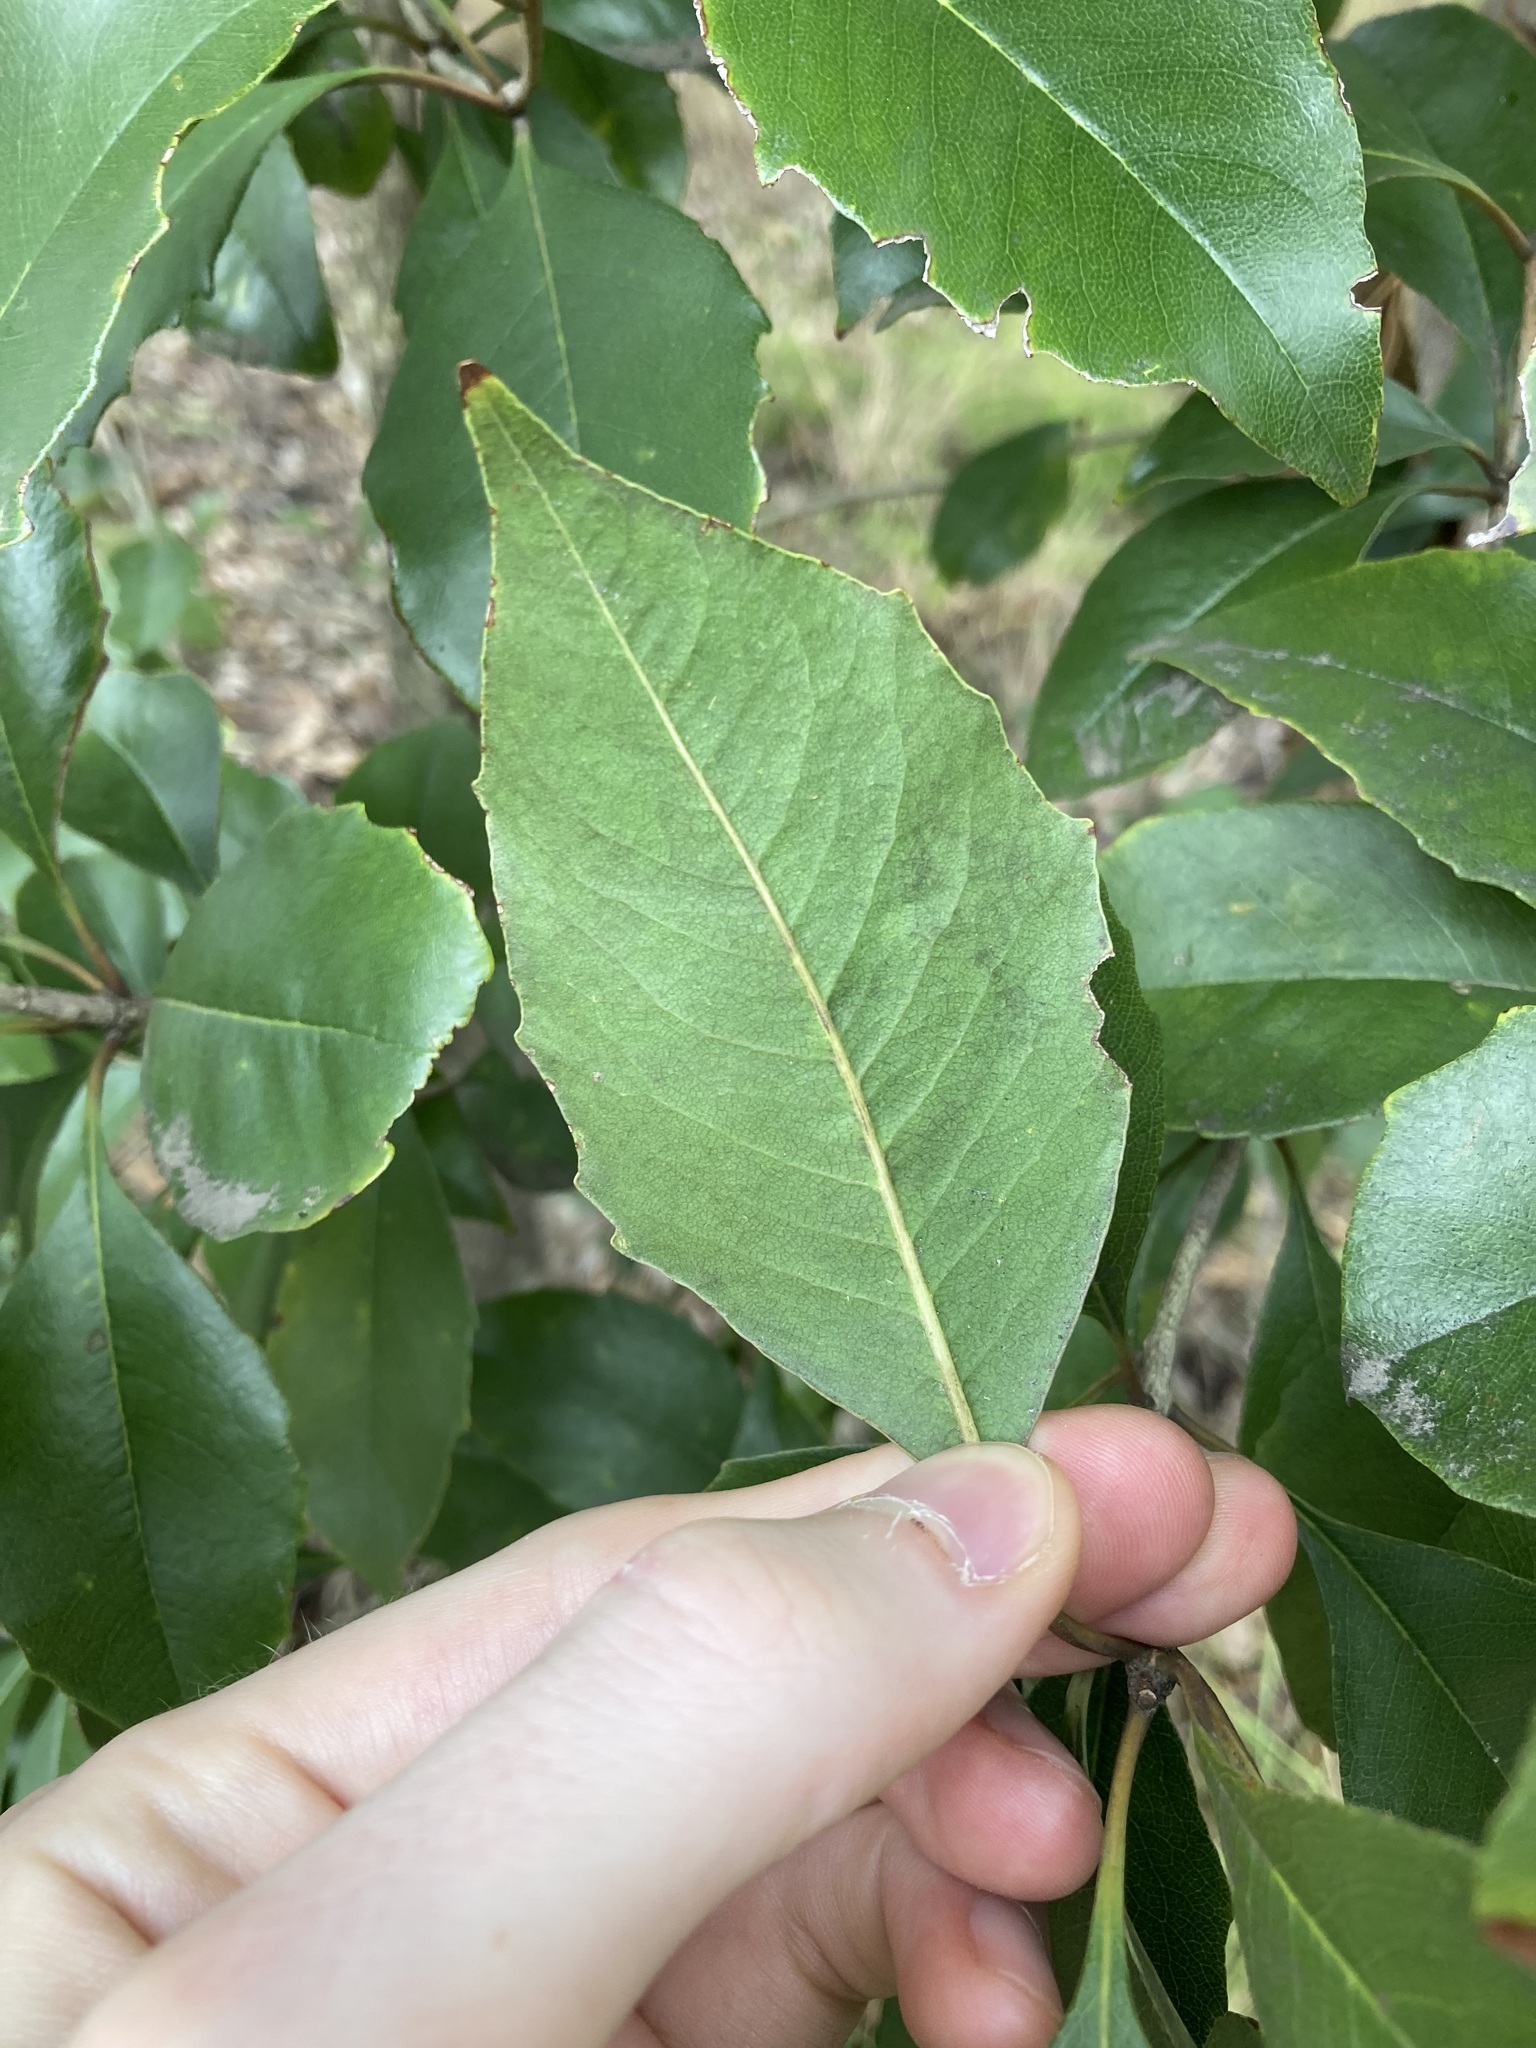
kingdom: Plantae
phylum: Tracheophyta
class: Magnoliopsida
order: Apiales
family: Pittosporaceae
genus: Auranticarpa
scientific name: Auranticarpa rhombifolia
